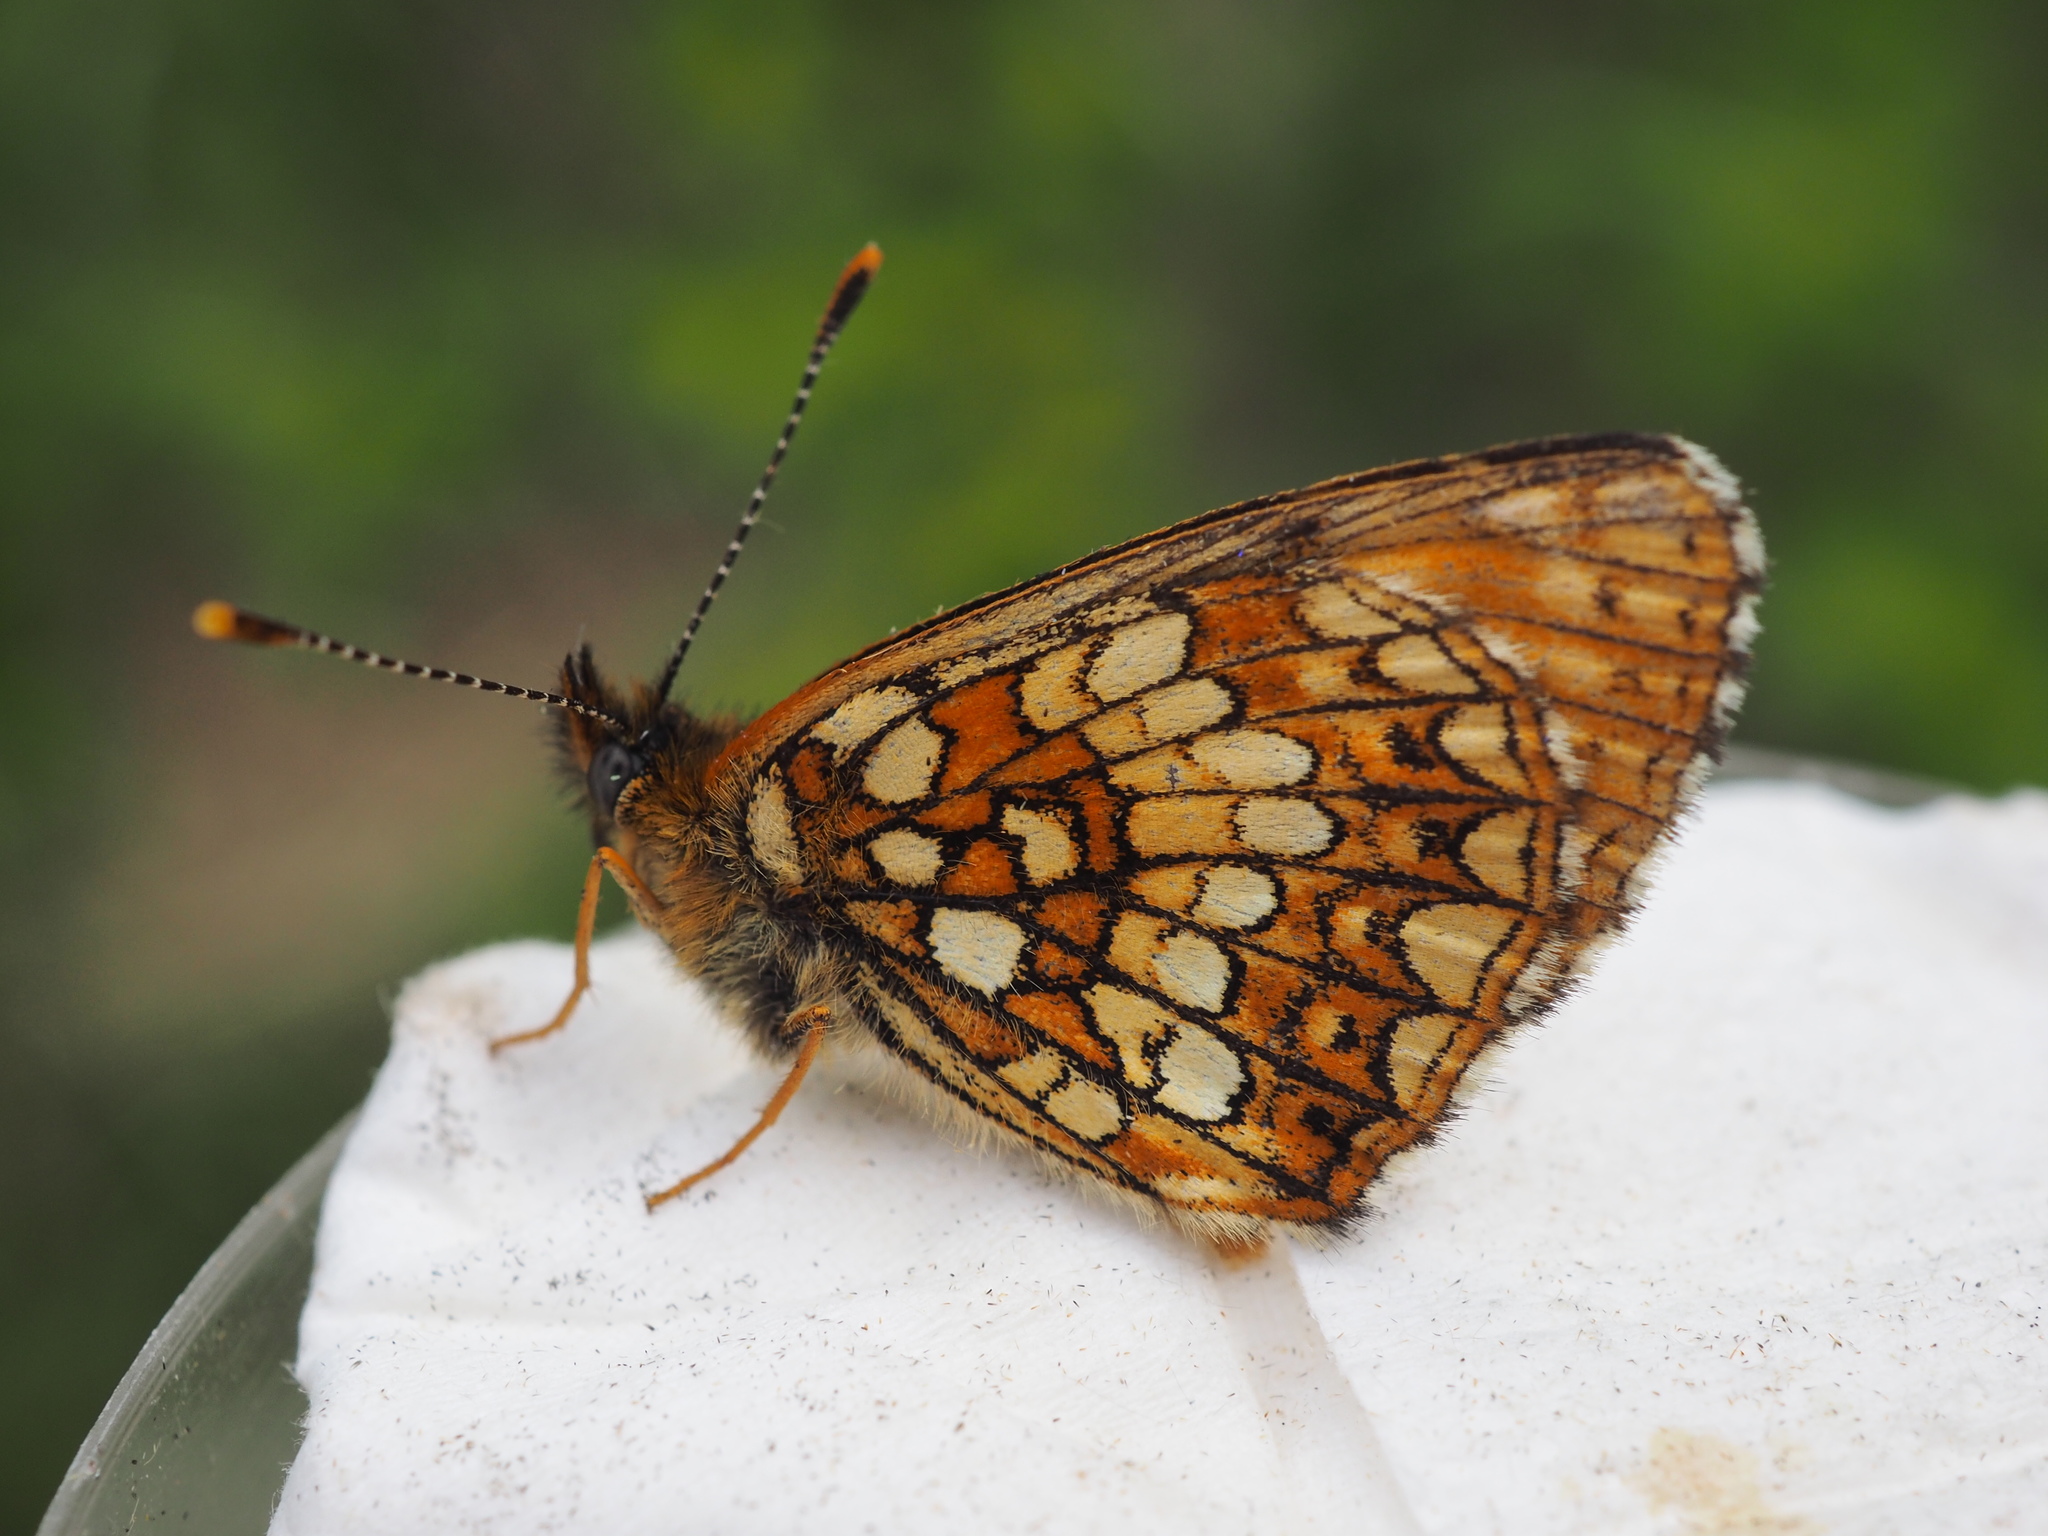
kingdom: Animalia
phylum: Arthropoda
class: Insecta
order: Lepidoptera
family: Nymphalidae
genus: Melitaea
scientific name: Melitaea diamina
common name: False heath fritillary
